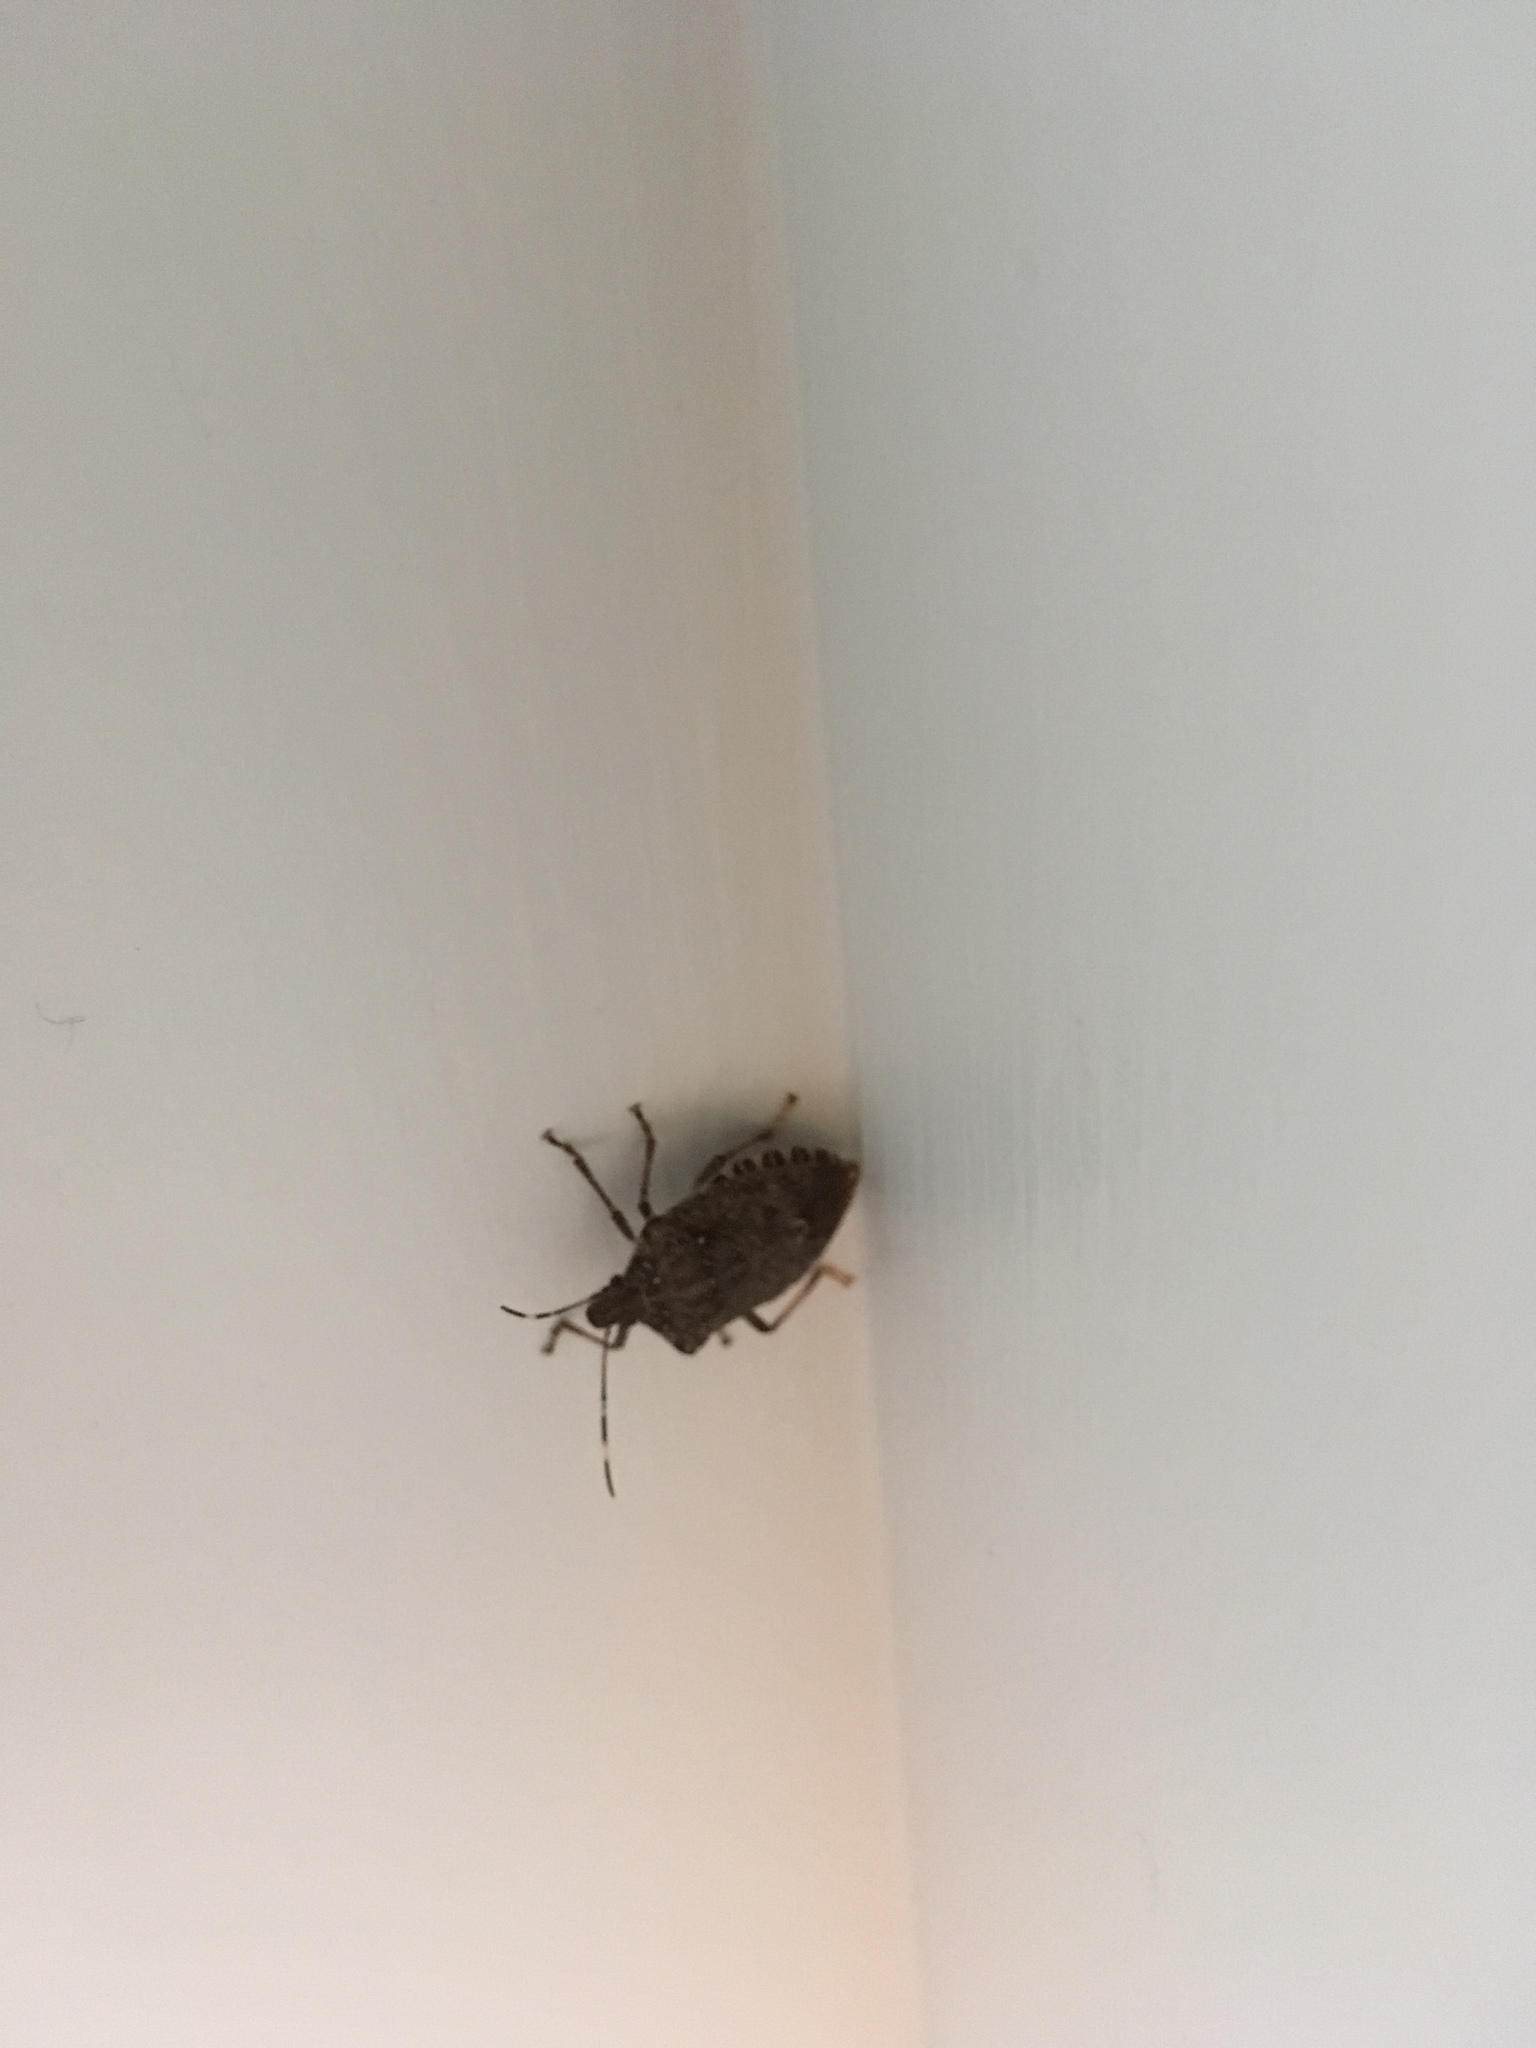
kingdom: Animalia
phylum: Arthropoda
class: Insecta
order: Hemiptera
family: Pentatomidae
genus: Halyomorpha
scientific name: Halyomorpha halys
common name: Brown marmorated stink bug
